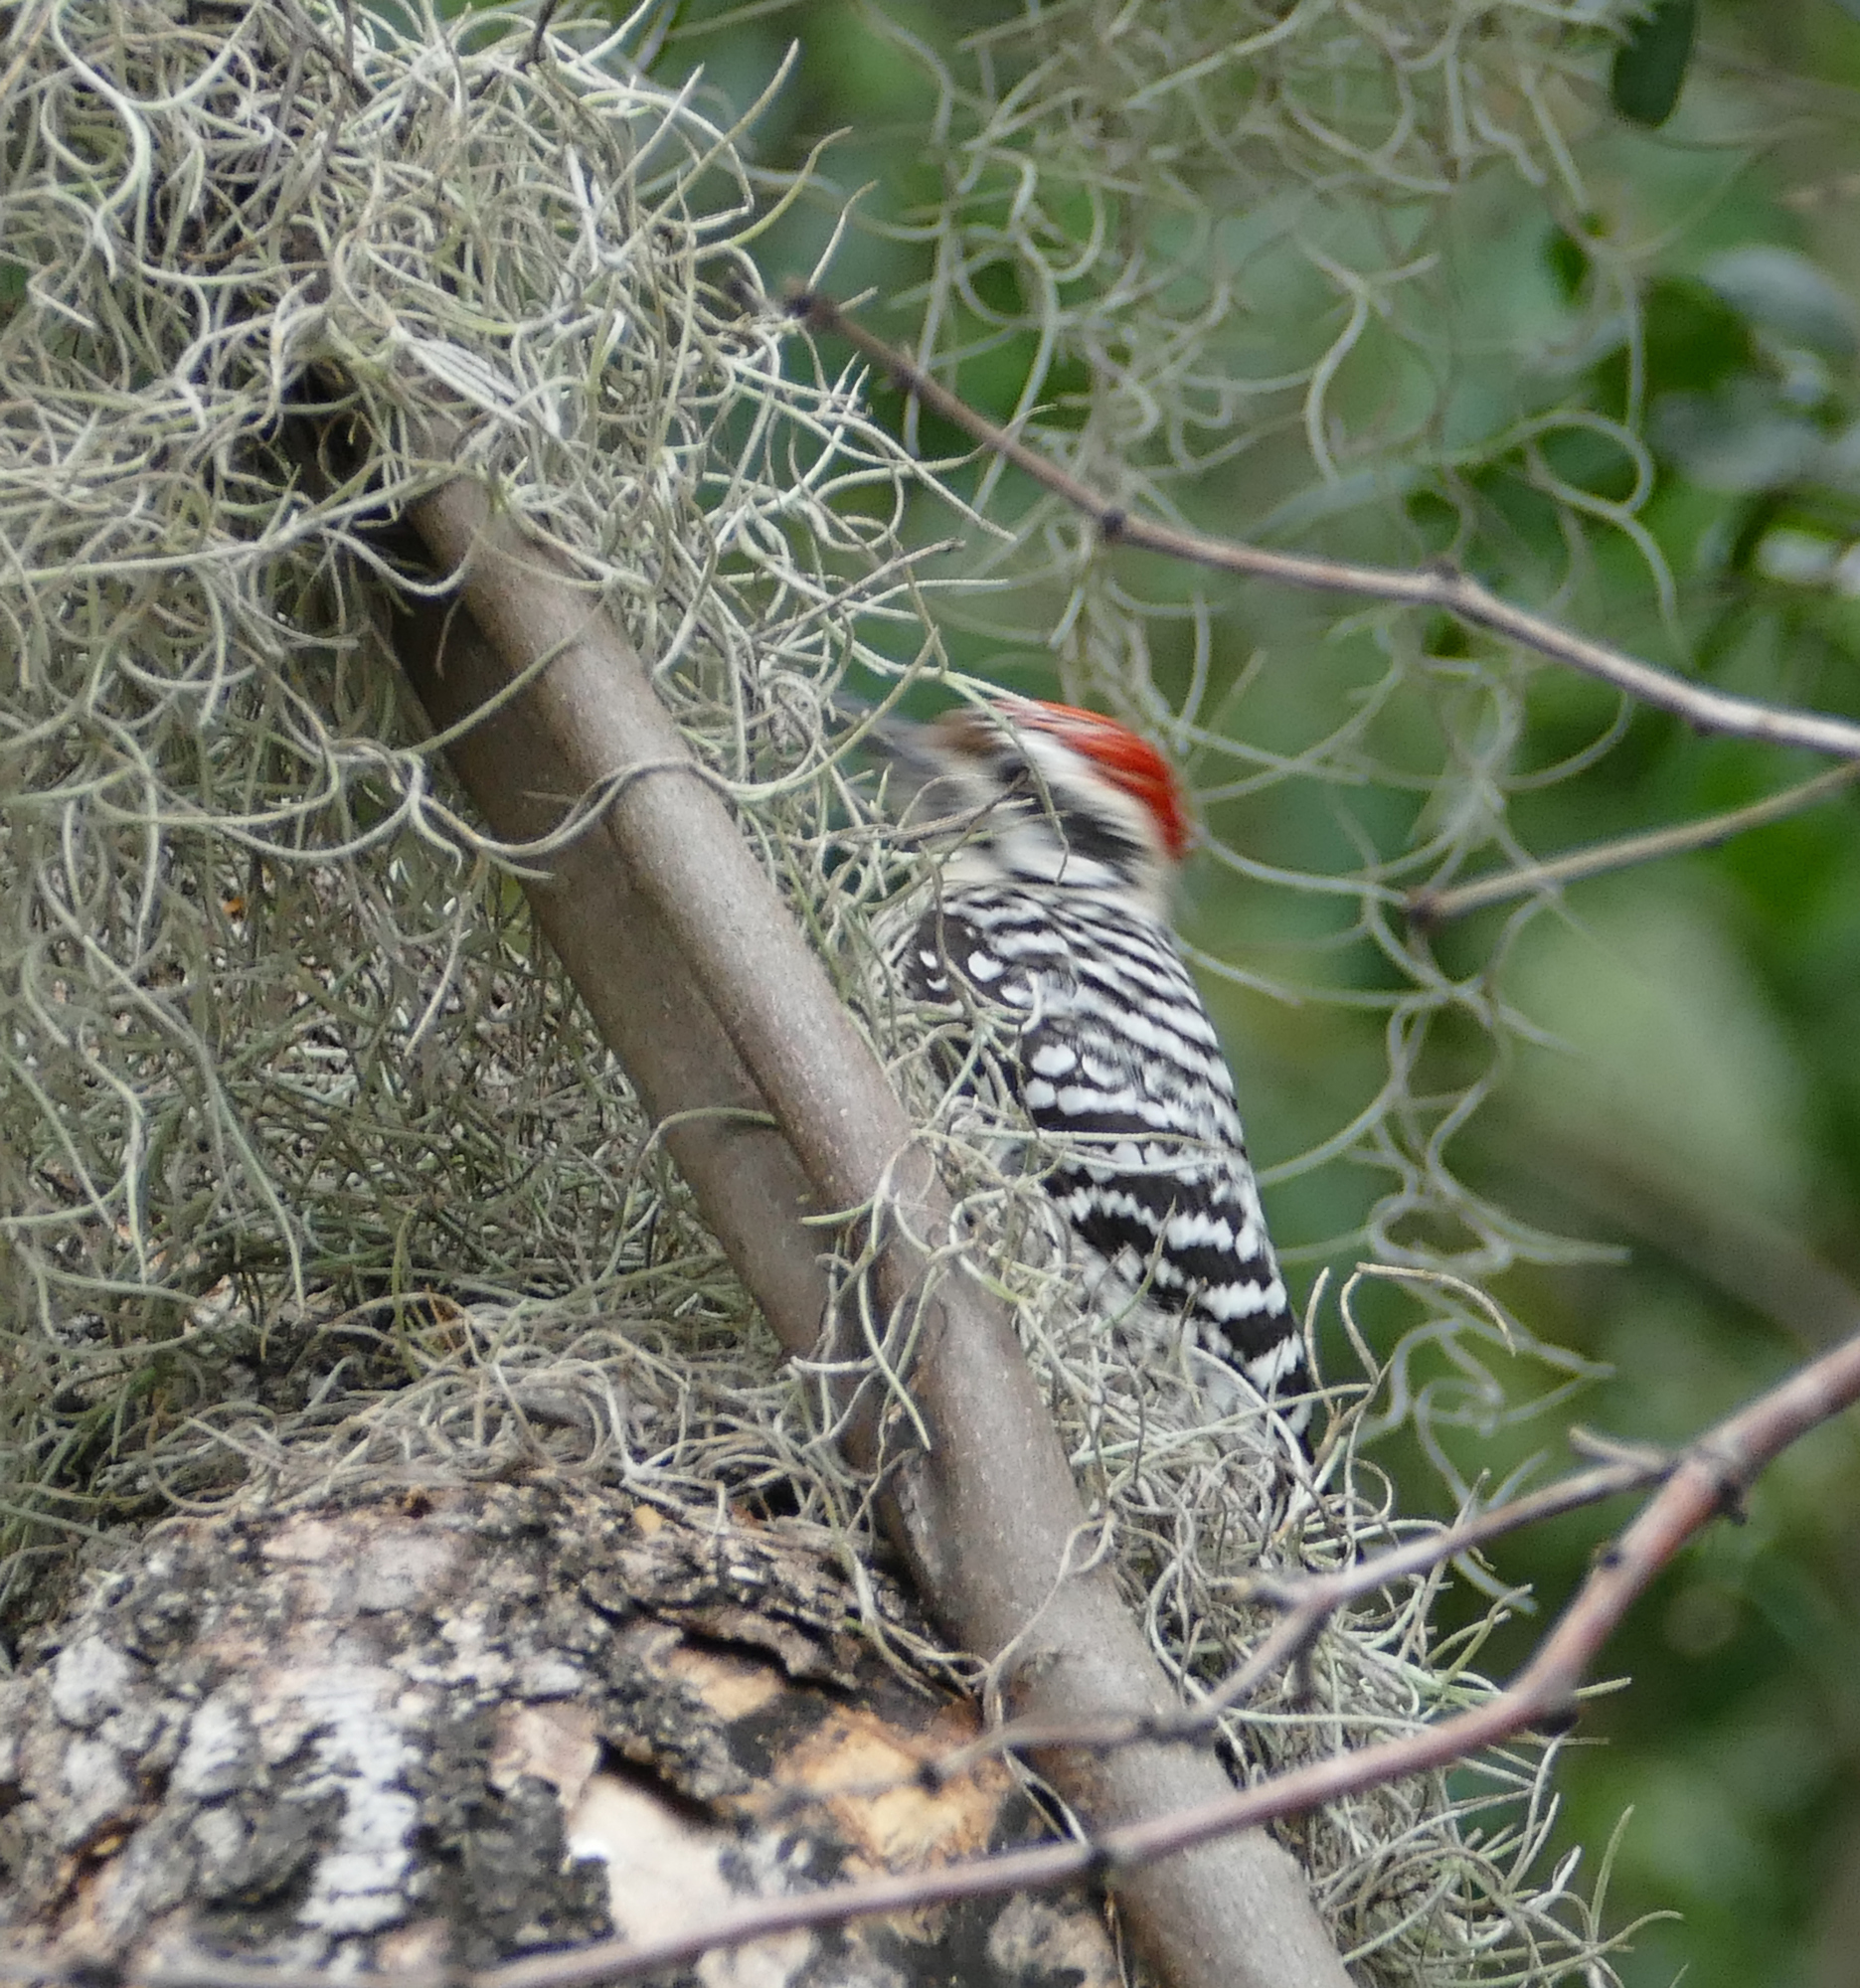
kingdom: Animalia
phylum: Chordata
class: Aves
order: Piciformes
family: Picidae
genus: Dryobates
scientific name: Dryobates scalaris
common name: Ladder-backed woodpecker
